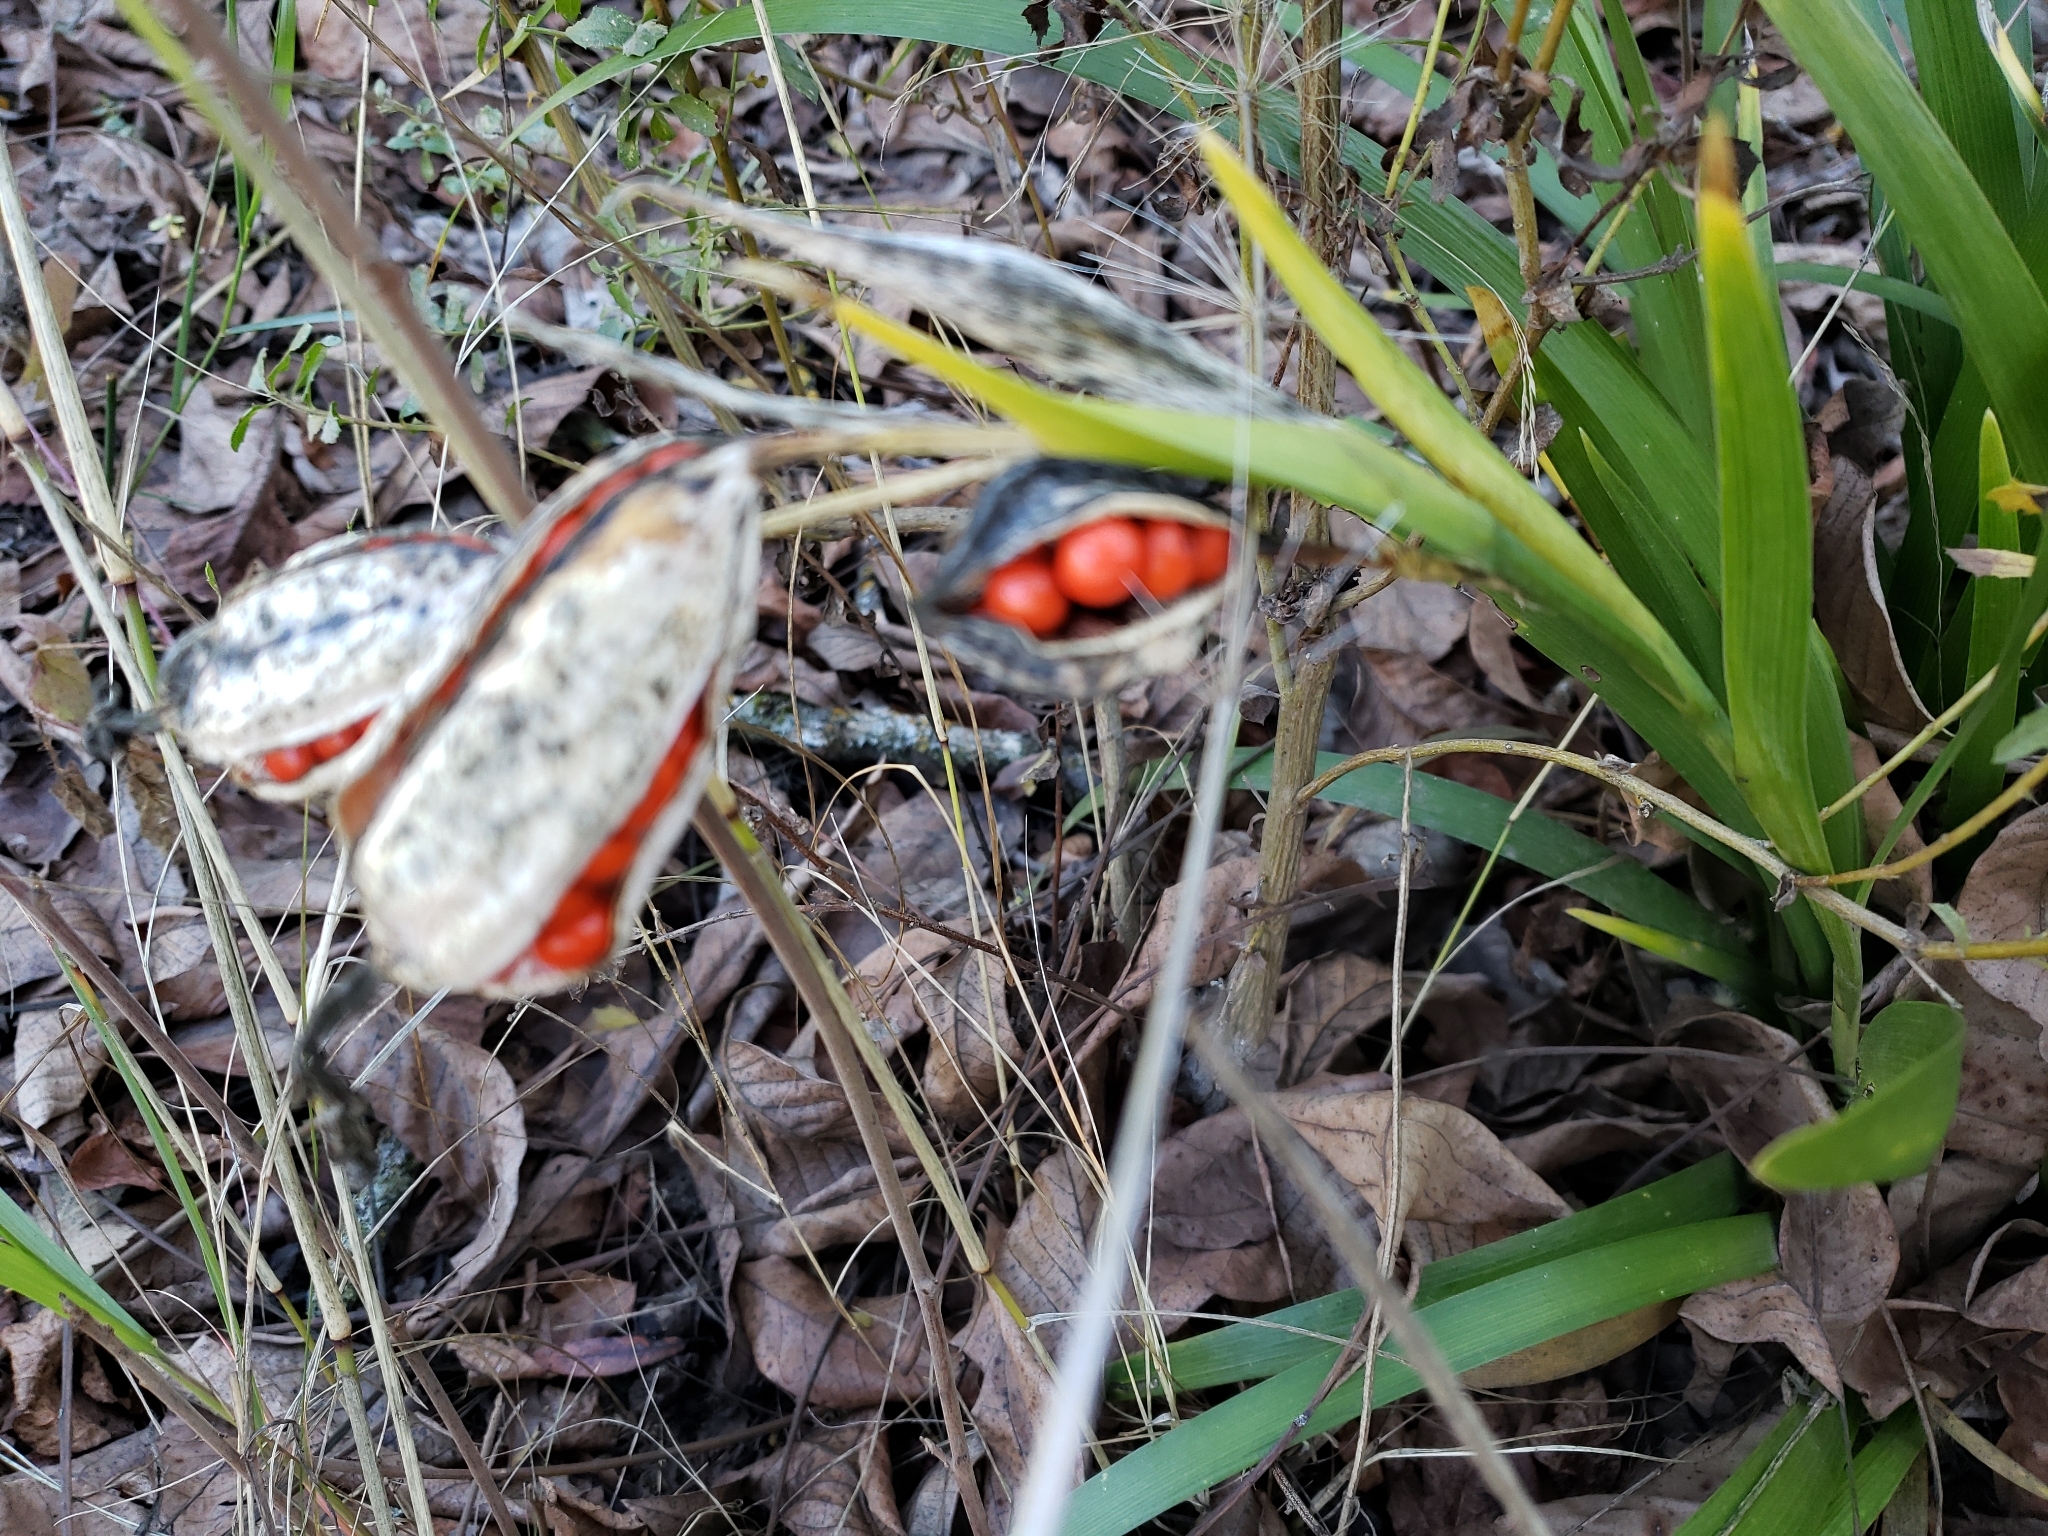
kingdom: Plantae
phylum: Tracheophyta
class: Liliopsida
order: Asparagales
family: Iridaceae
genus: Iris
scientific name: Iris foetidissima
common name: Stinking iris
